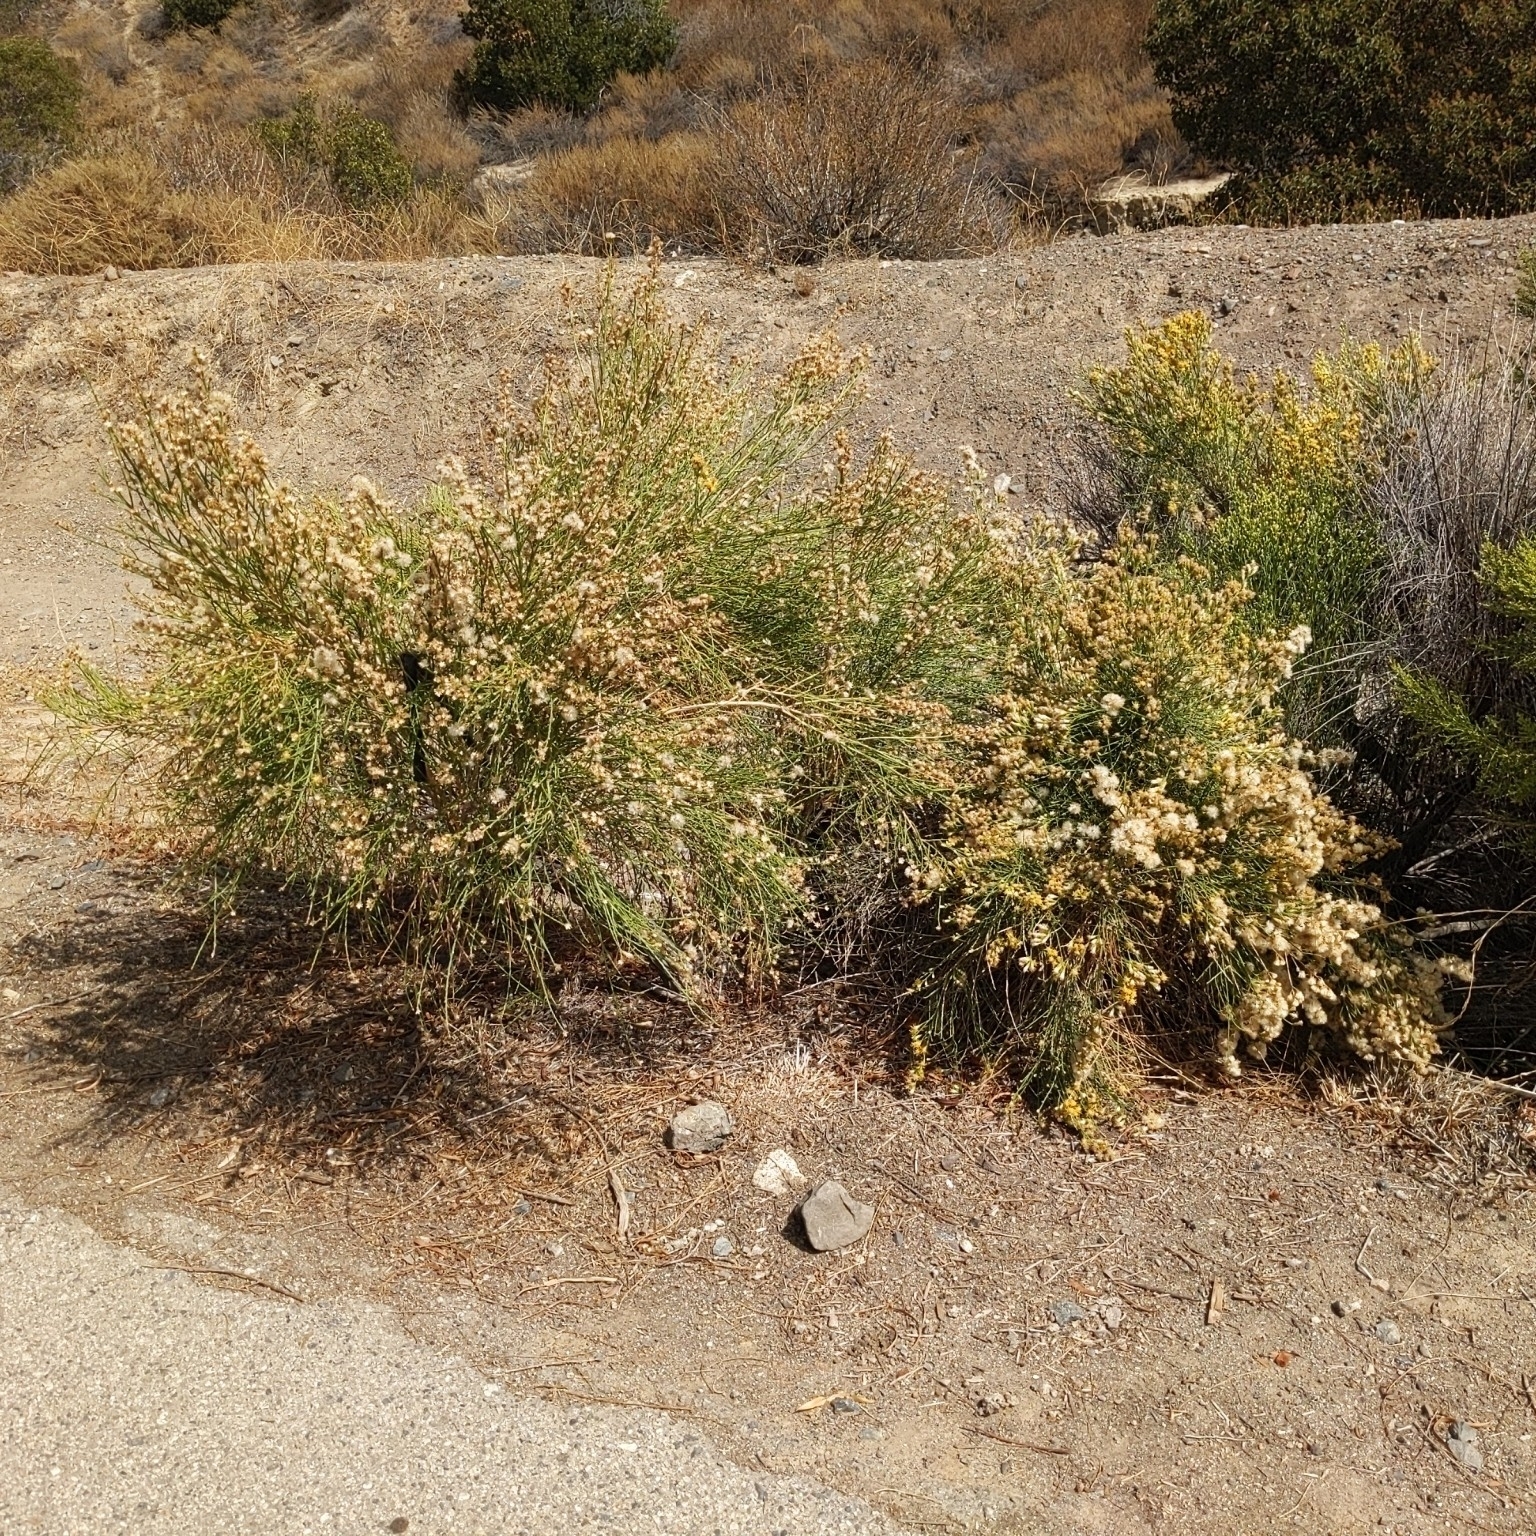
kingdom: Plantae
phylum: Tracheophyta
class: Magnoliopsida
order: Asterales
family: Asteraceae
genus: Lepidospartum
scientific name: Lepidospartum squamatum
